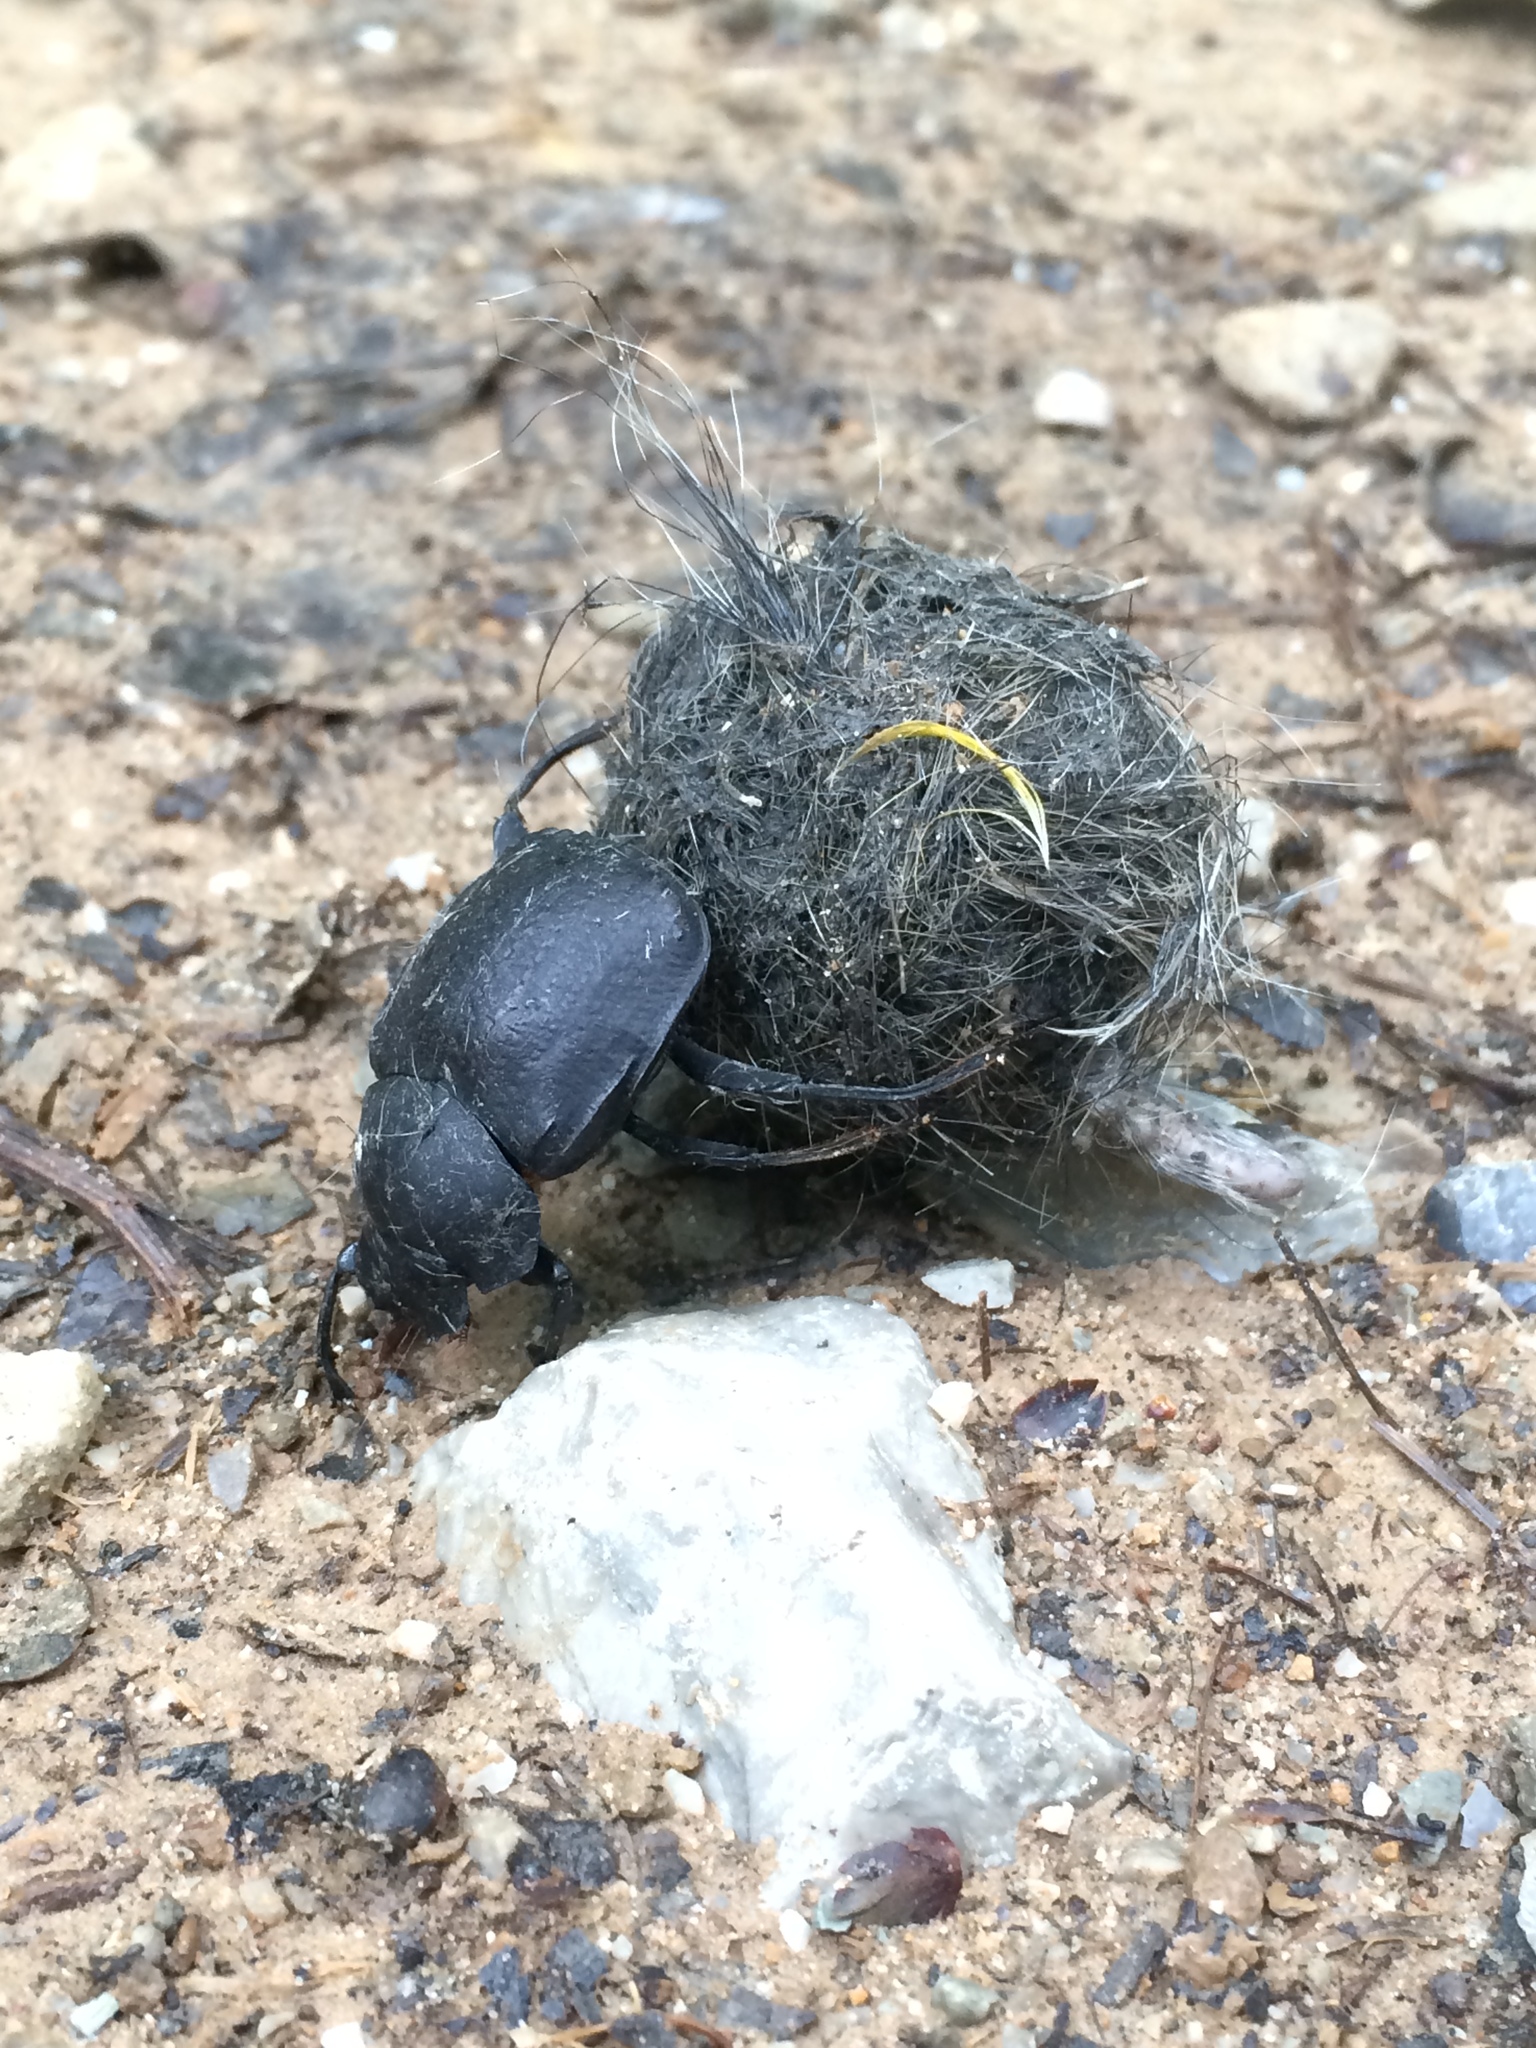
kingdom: Animalia
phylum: Arthropoda
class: Insecta
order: Coleoptera
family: Scarabaeidae
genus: Deltochilum
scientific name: Deltochilum gibbosum
